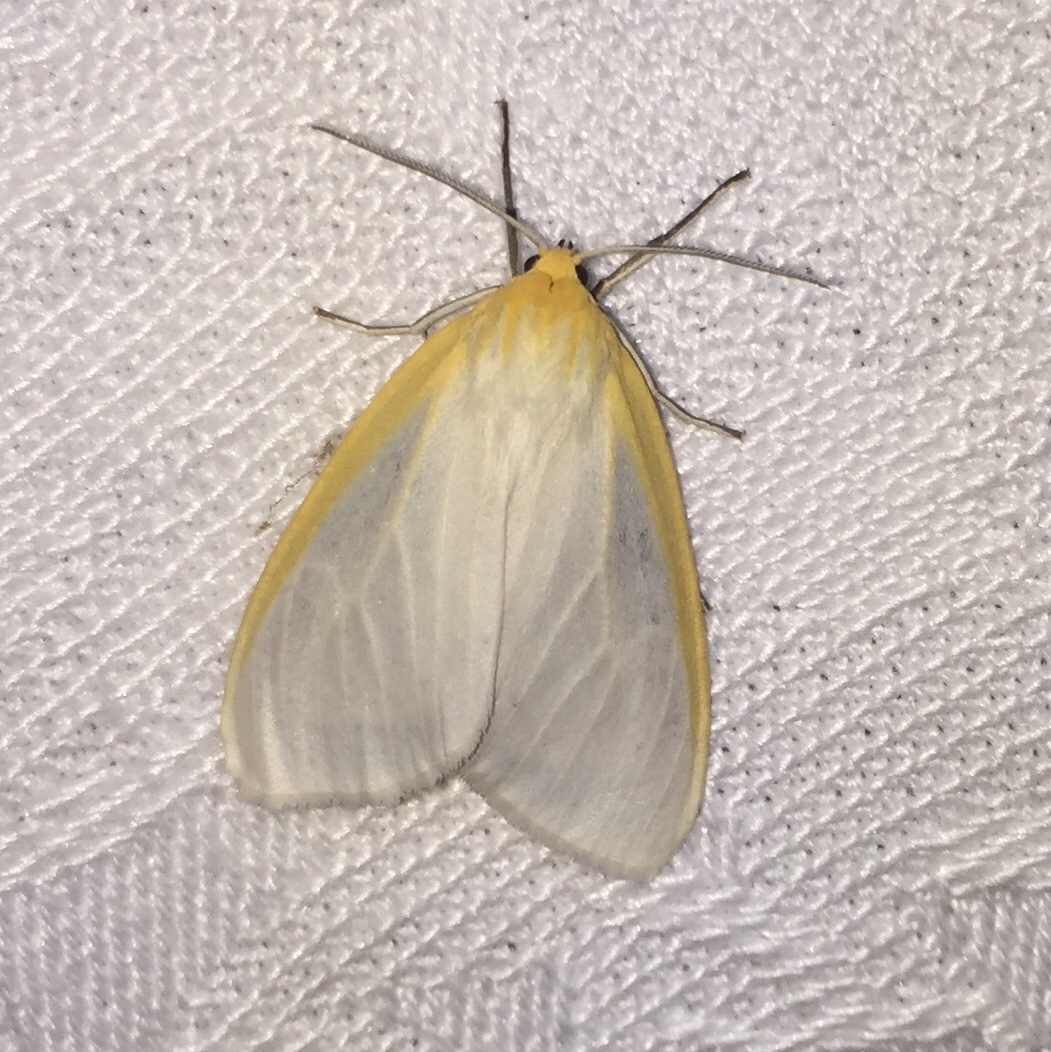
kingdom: Animalia
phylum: Arthropoda
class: Insecta
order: Lepidoptera
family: Erebidae
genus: Cycnia
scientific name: Cycnia tenera
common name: Delicate cycnia moth
